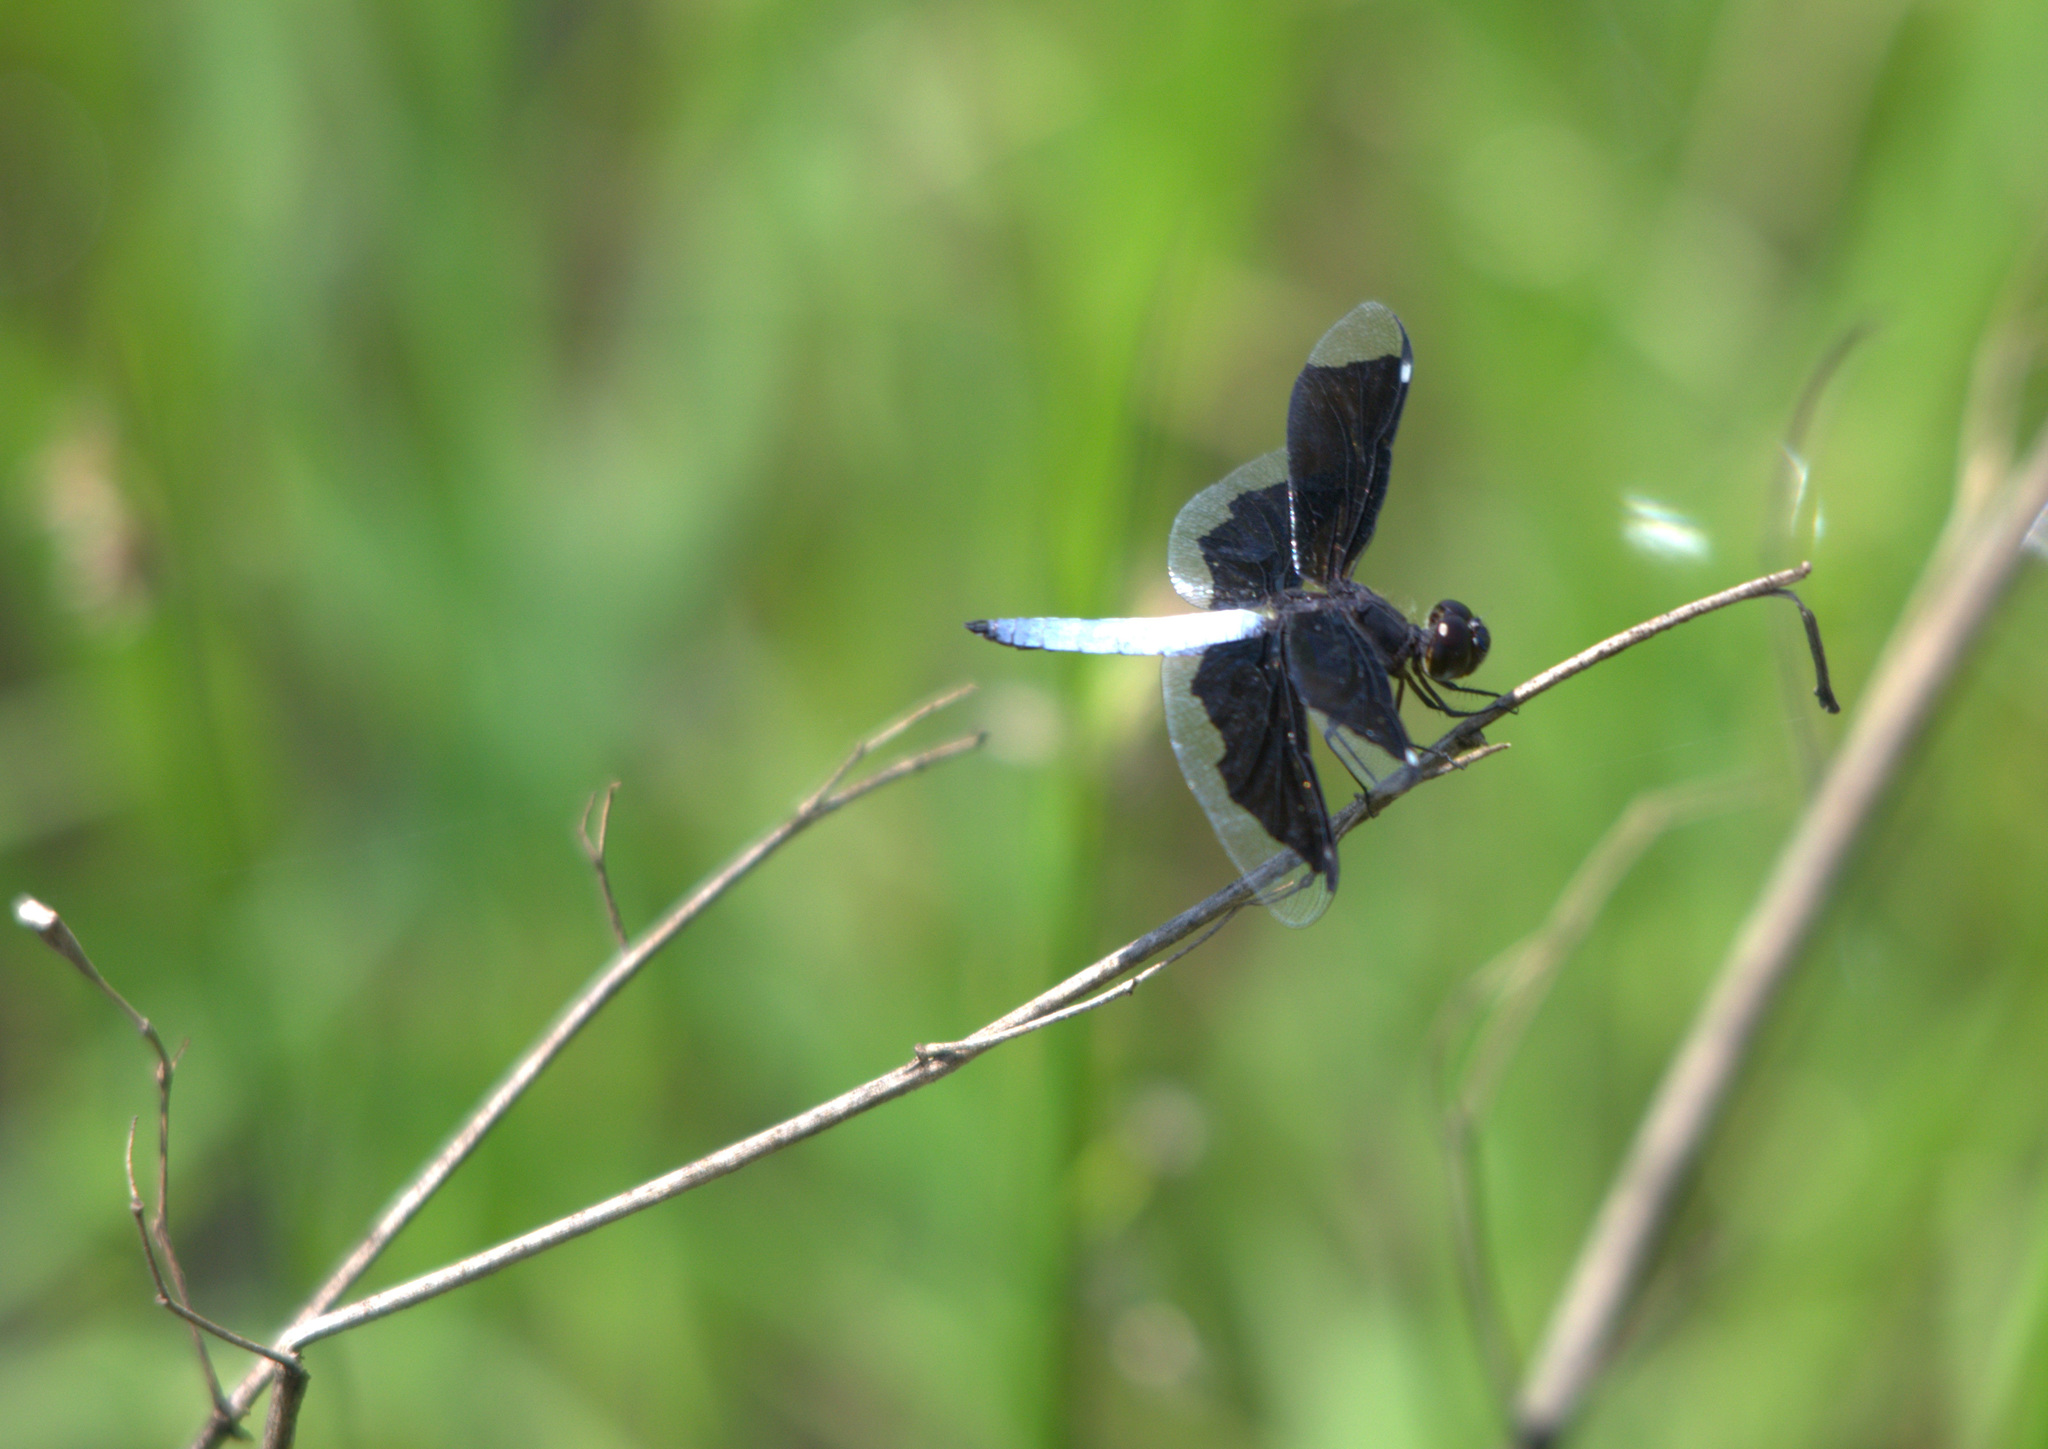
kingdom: Animalia
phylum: Arthropoda
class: Insecta
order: Odonata
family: Libellulidae
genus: Palpopleura
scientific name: Palpopleura lucia
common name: Lucia widow
